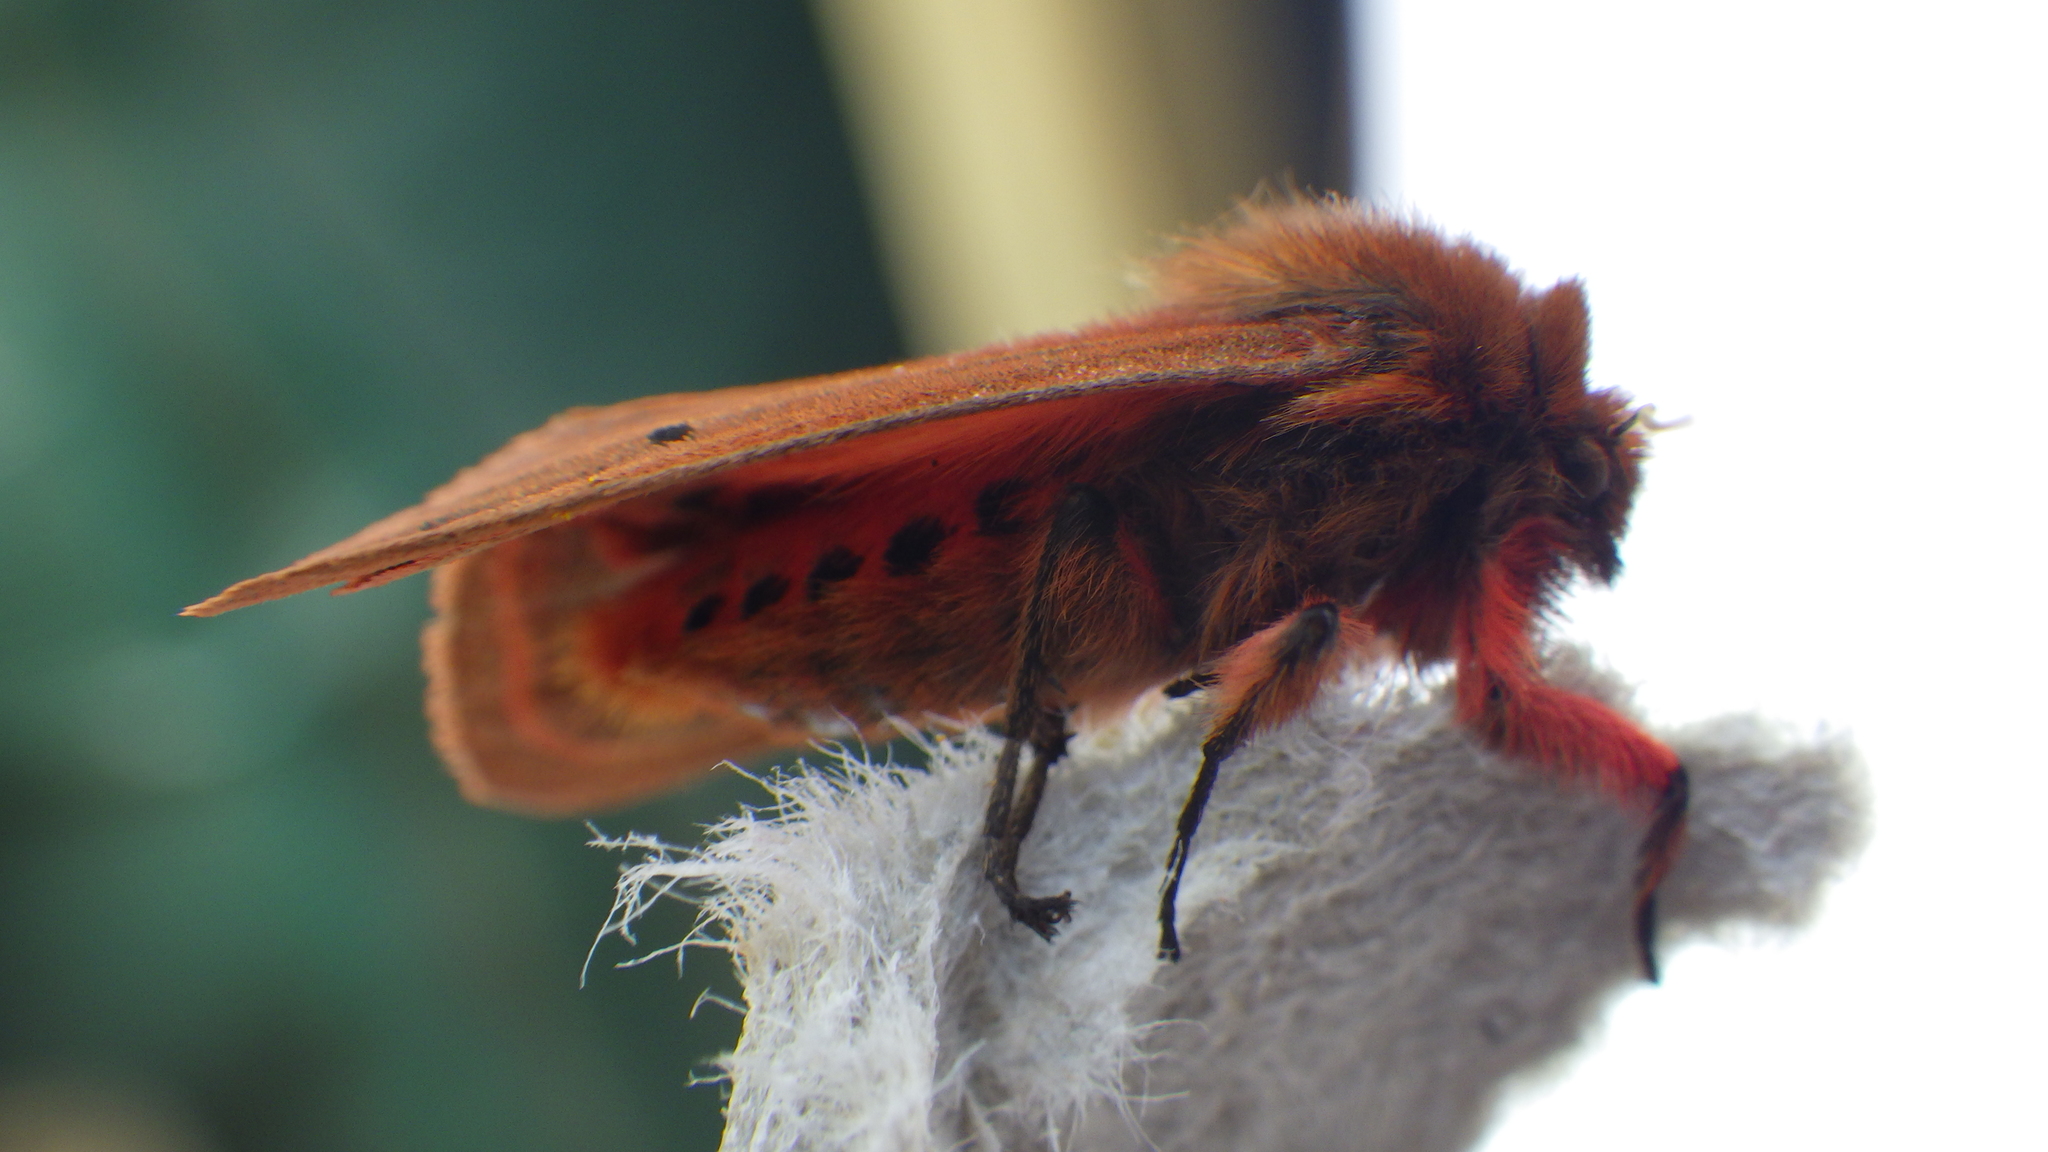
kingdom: Animalia
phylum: Arthropoda
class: Insecta
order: Lepidoptera
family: Erebidae
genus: Phragmatobia
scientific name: Phragmatobia fuliginosa
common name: Ruby tiger
